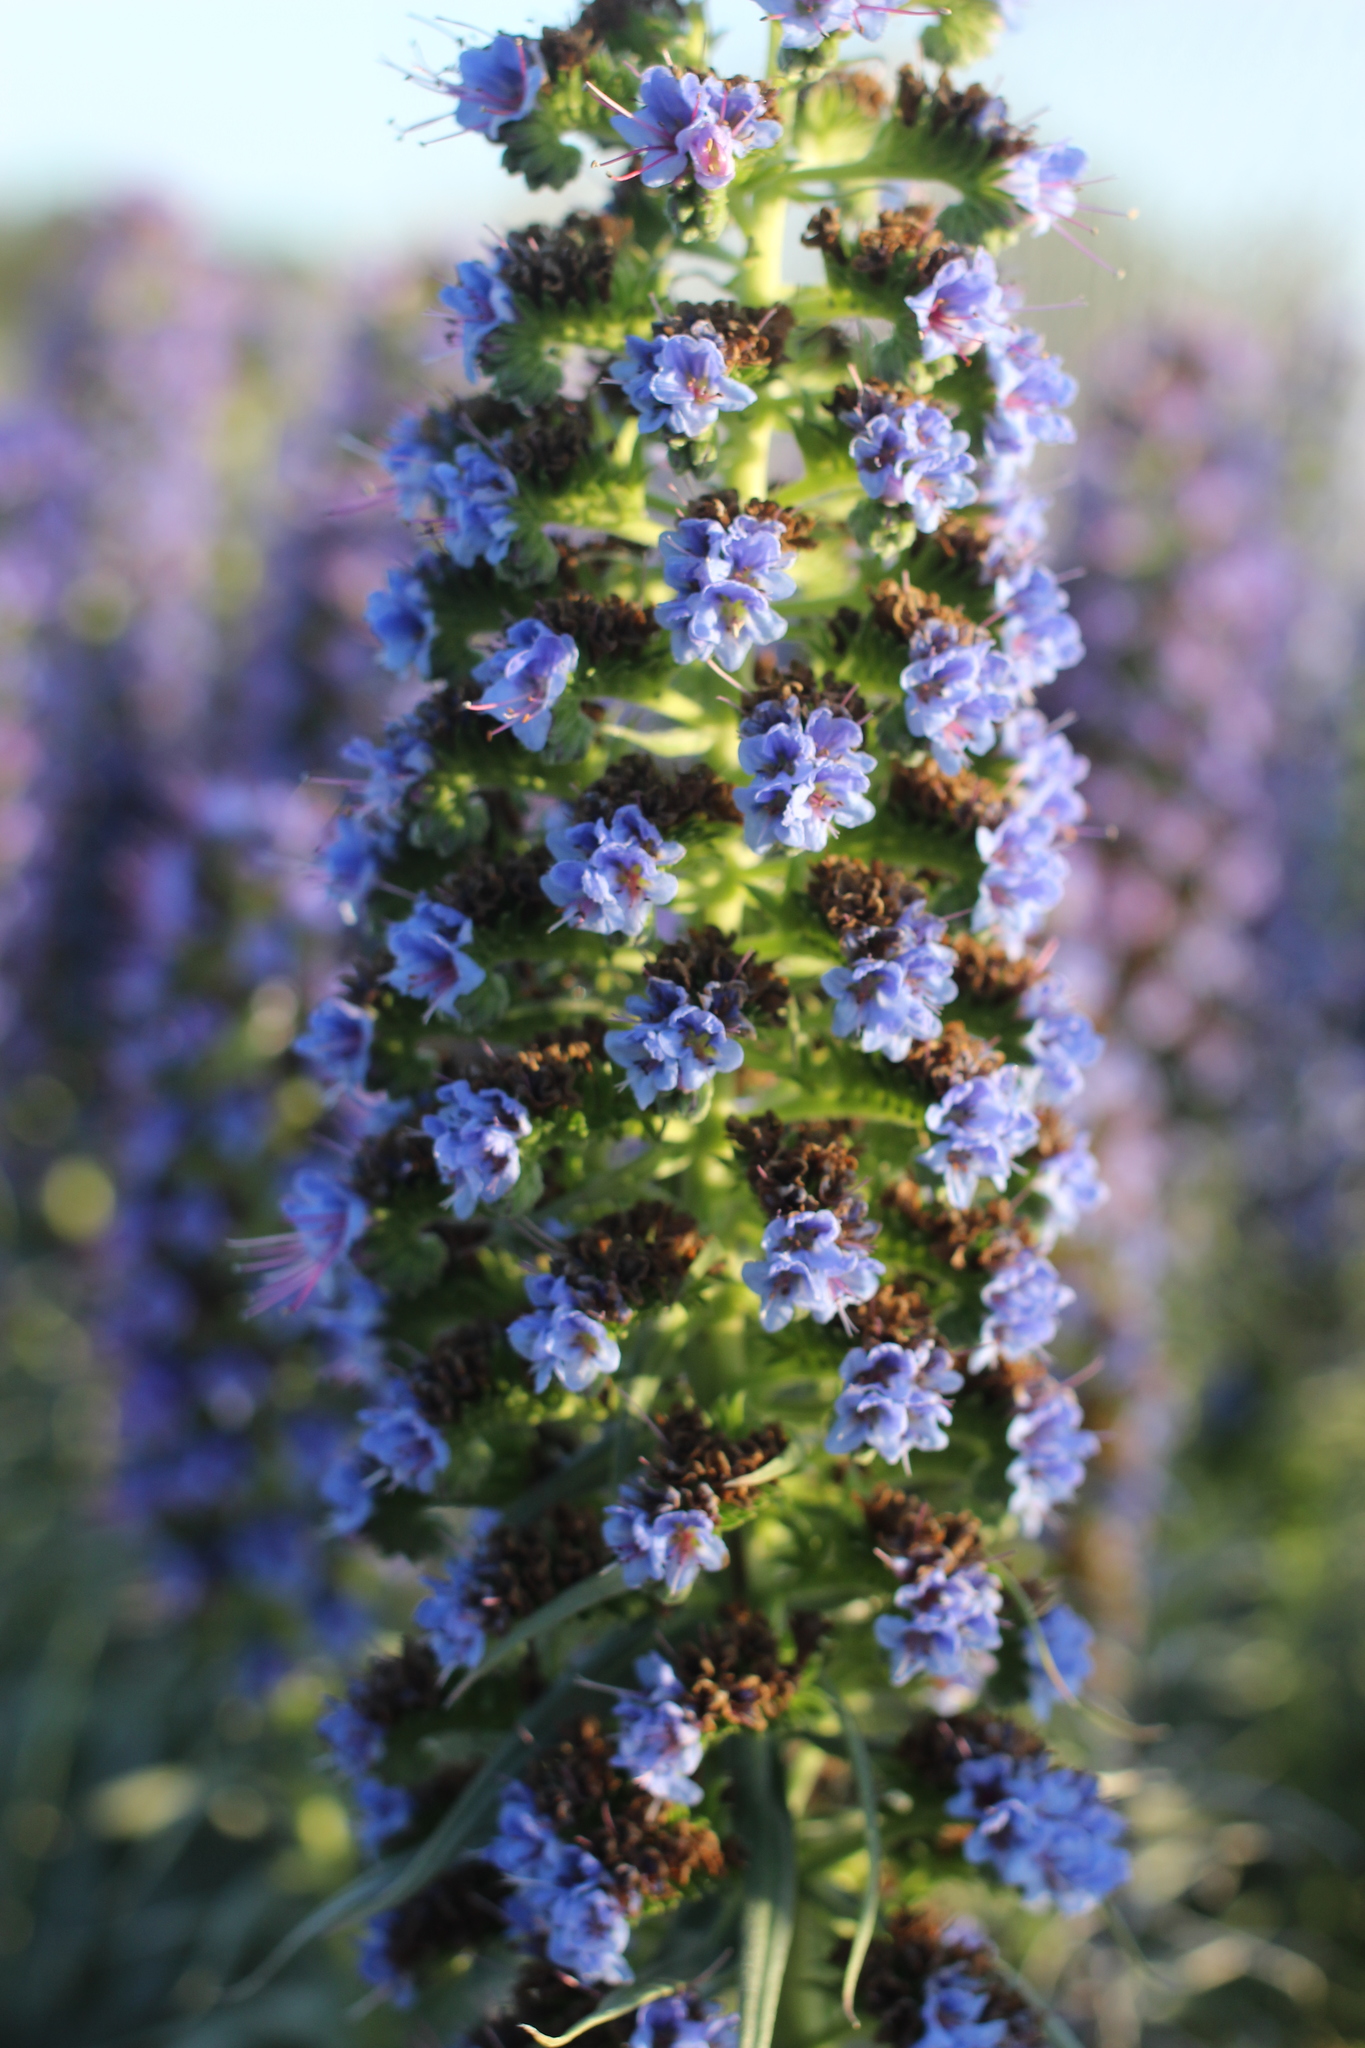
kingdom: Plantae
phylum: Tracheophyta
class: Magnoliopsida
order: Boraginales
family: Boraginaceae
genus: Echium
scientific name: Echium candicans
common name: Pride of madeira
